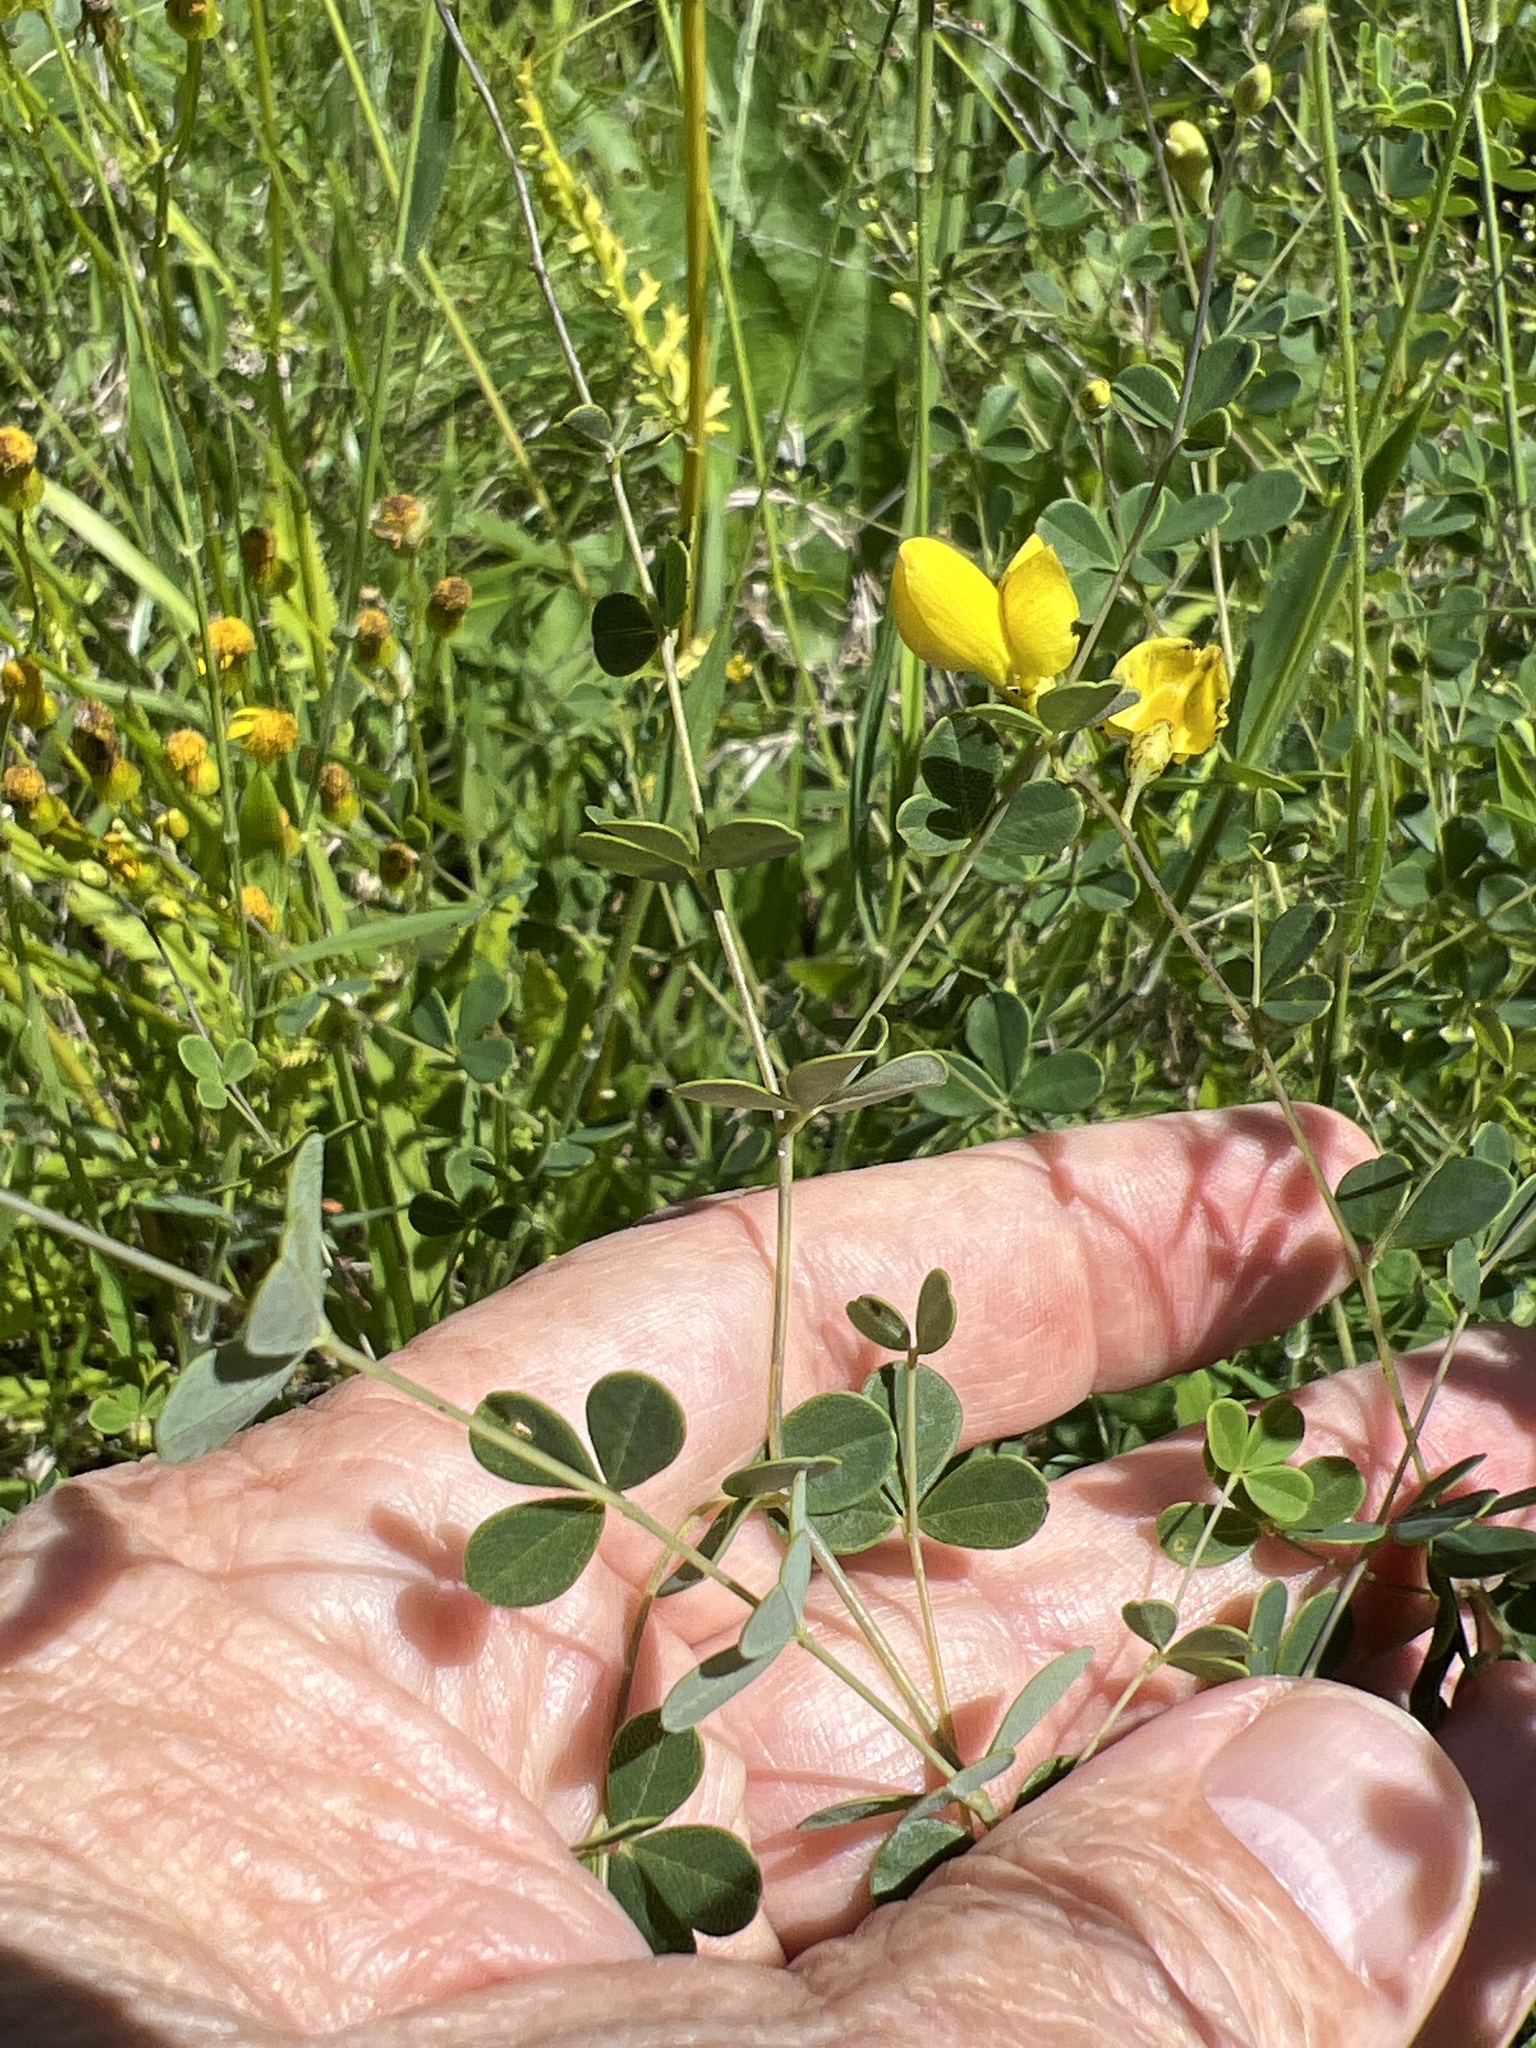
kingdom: Plantae
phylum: Tracheophyta
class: Magnoliopsida
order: Fabales
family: Fabaceae
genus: Baptisia
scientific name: Baptisia tinctoria
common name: Wild indigo
